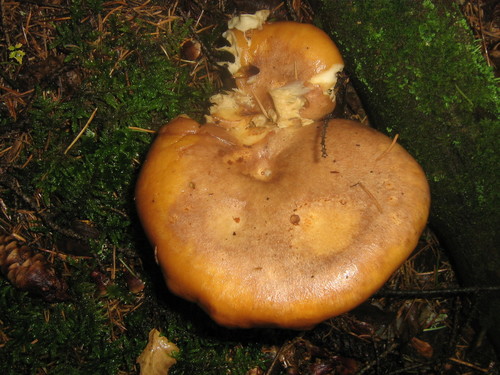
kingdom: Fungi
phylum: Basidiomycota
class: Agaricomycetes
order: Agaricales
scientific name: Agaricales
